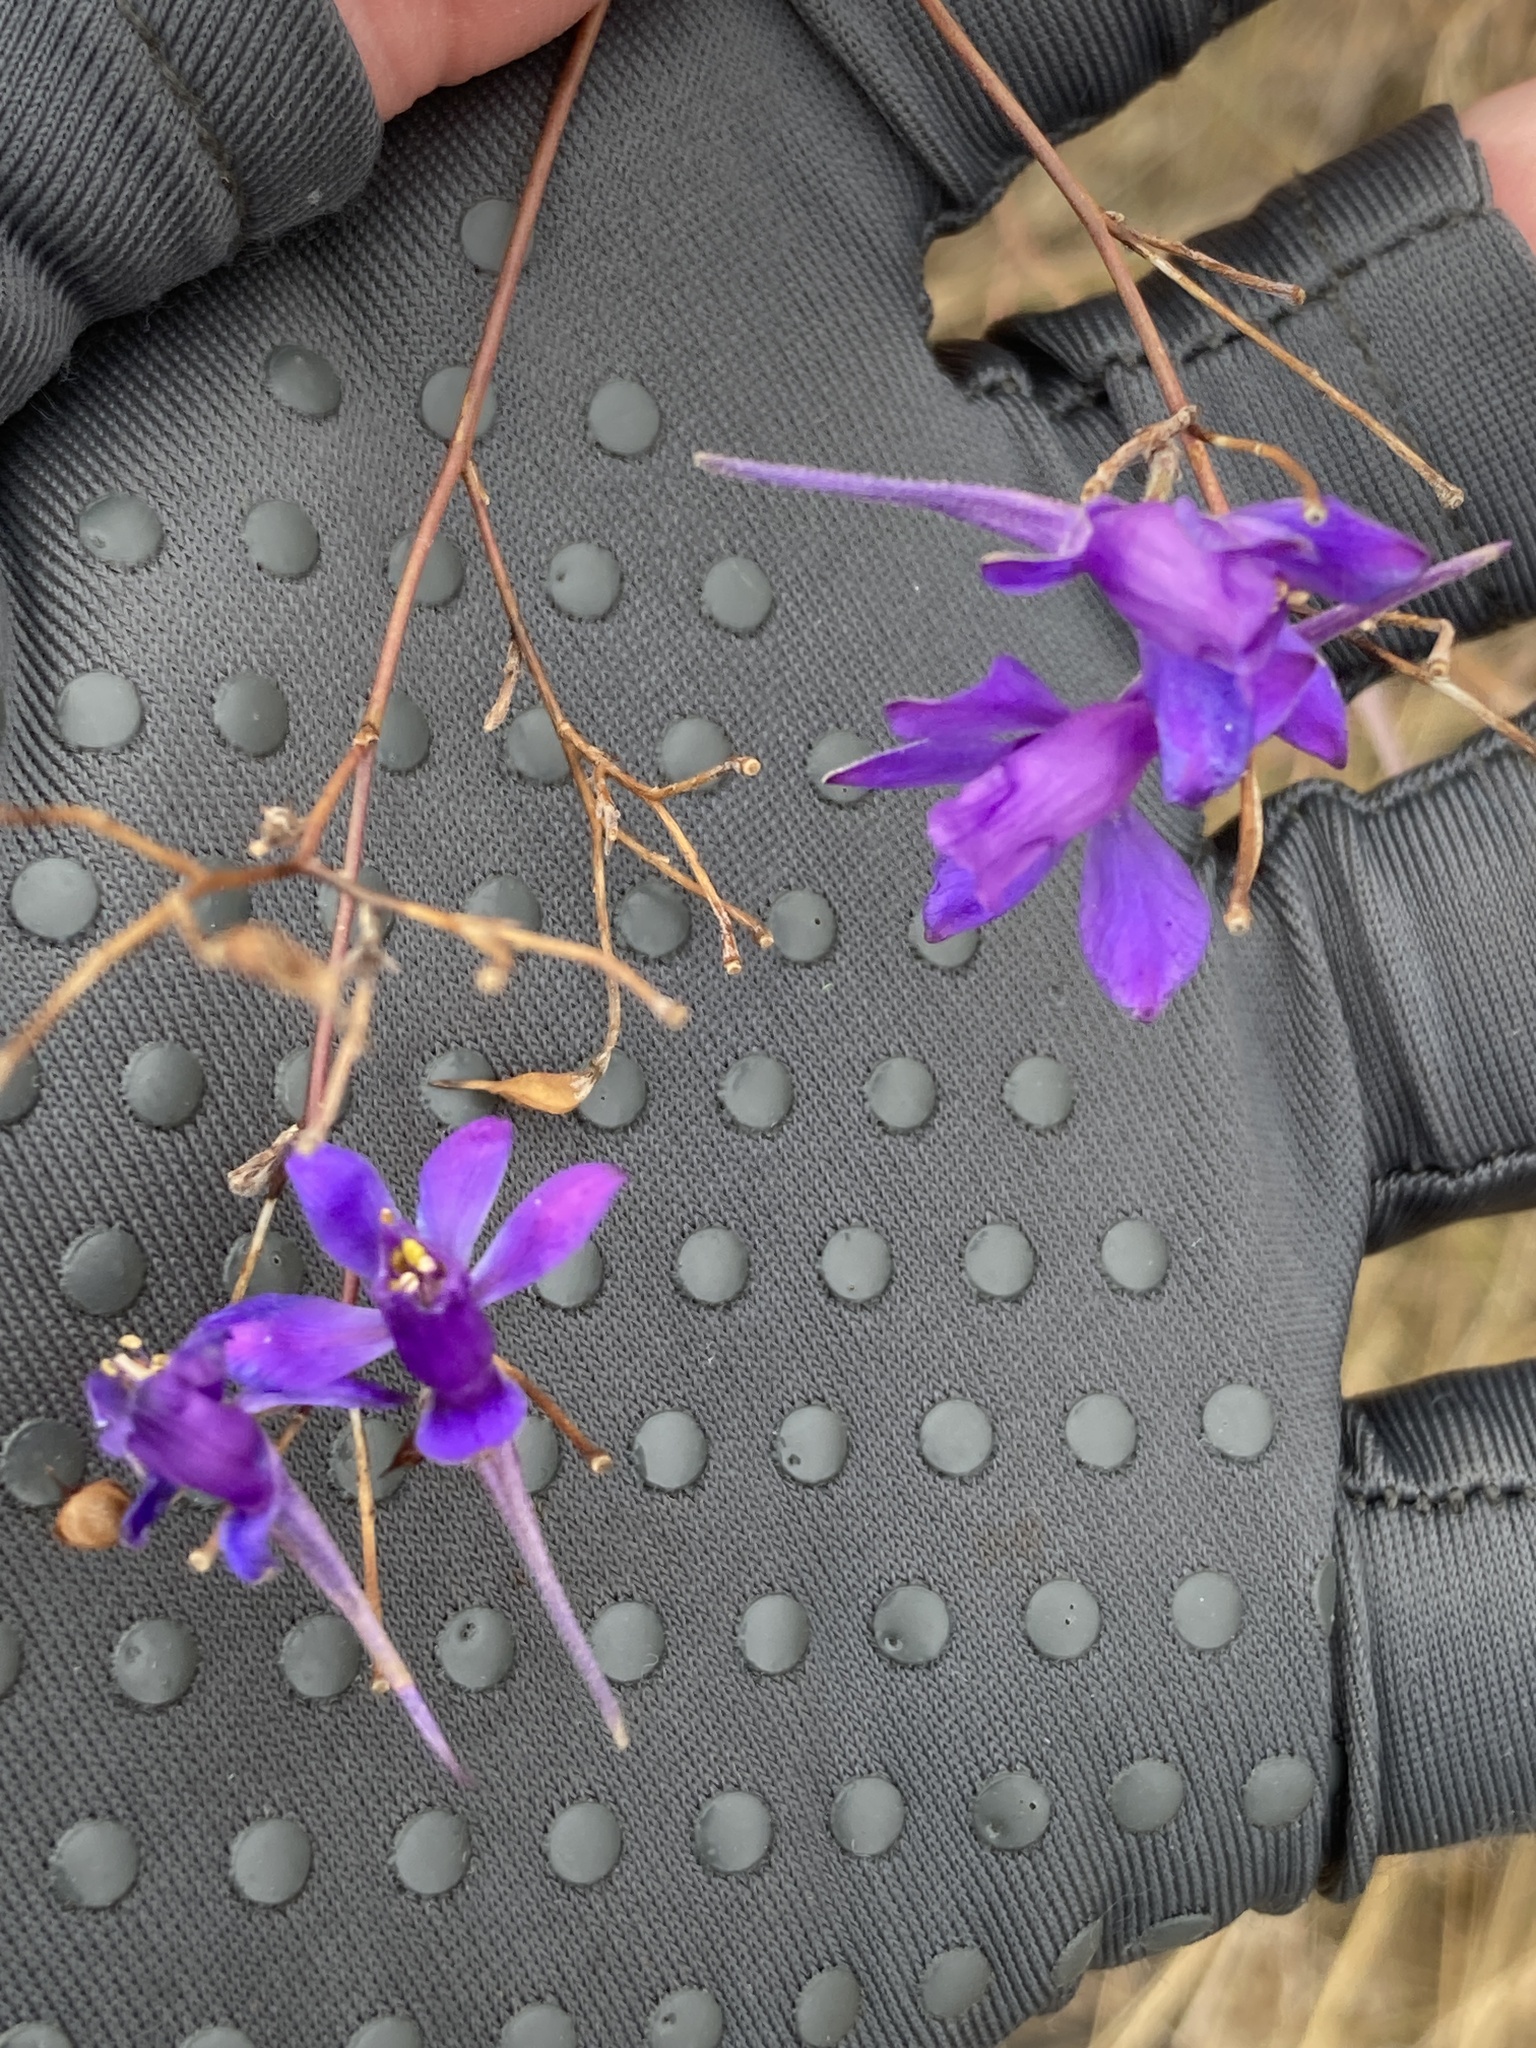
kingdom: Plantae
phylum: Tracheophyta
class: Magnoliopsida
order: Ranunculales
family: Ranunculaceae
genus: Delphinium
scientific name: Delphinium consolida
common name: Branching larkspur
